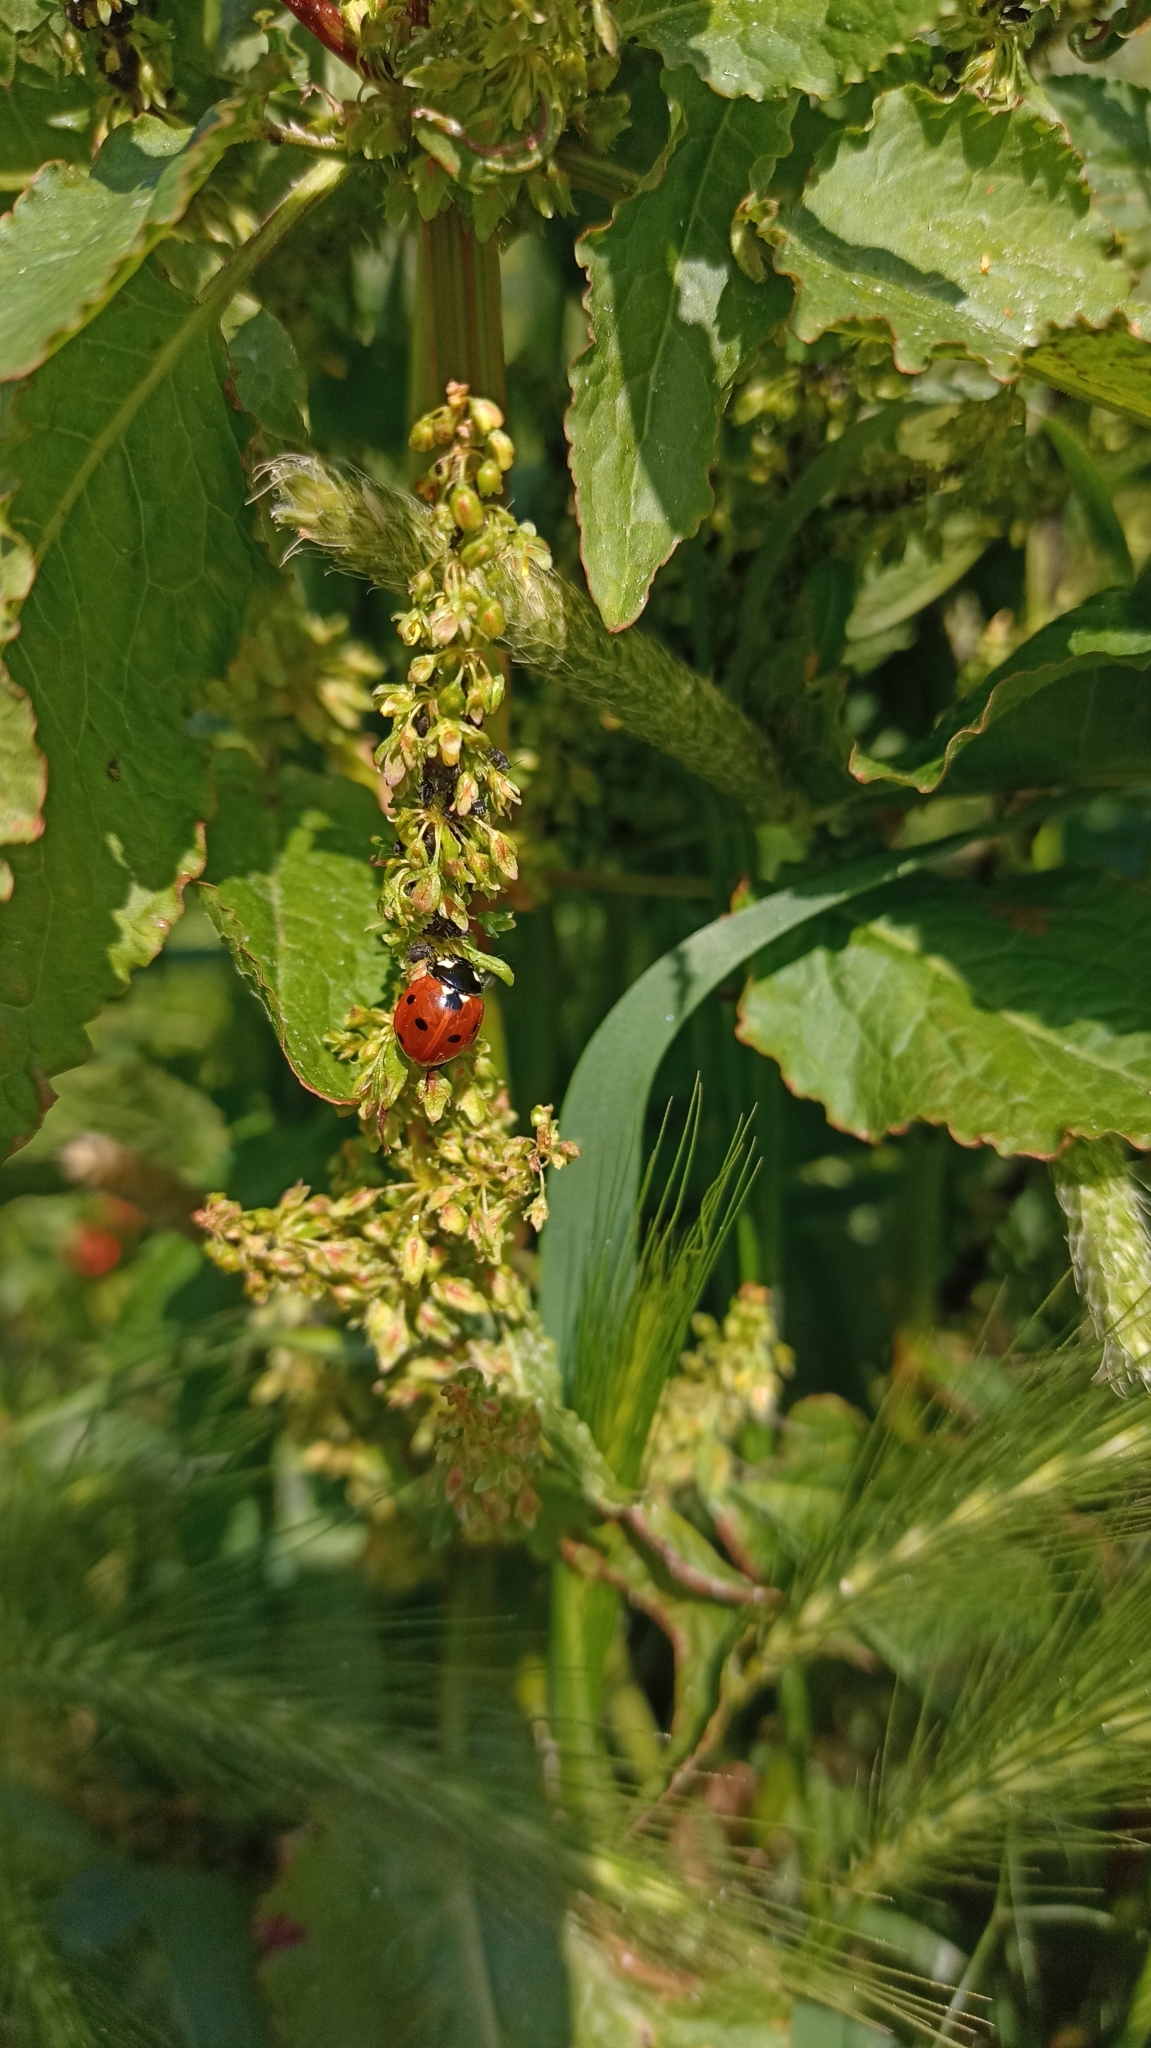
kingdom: Animalia
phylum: Arthropoda
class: Insecta
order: Coleoptera
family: Coccinellidae
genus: Coccinella
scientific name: Coccinella septempunctata
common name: Sevenspotted lady beetle
